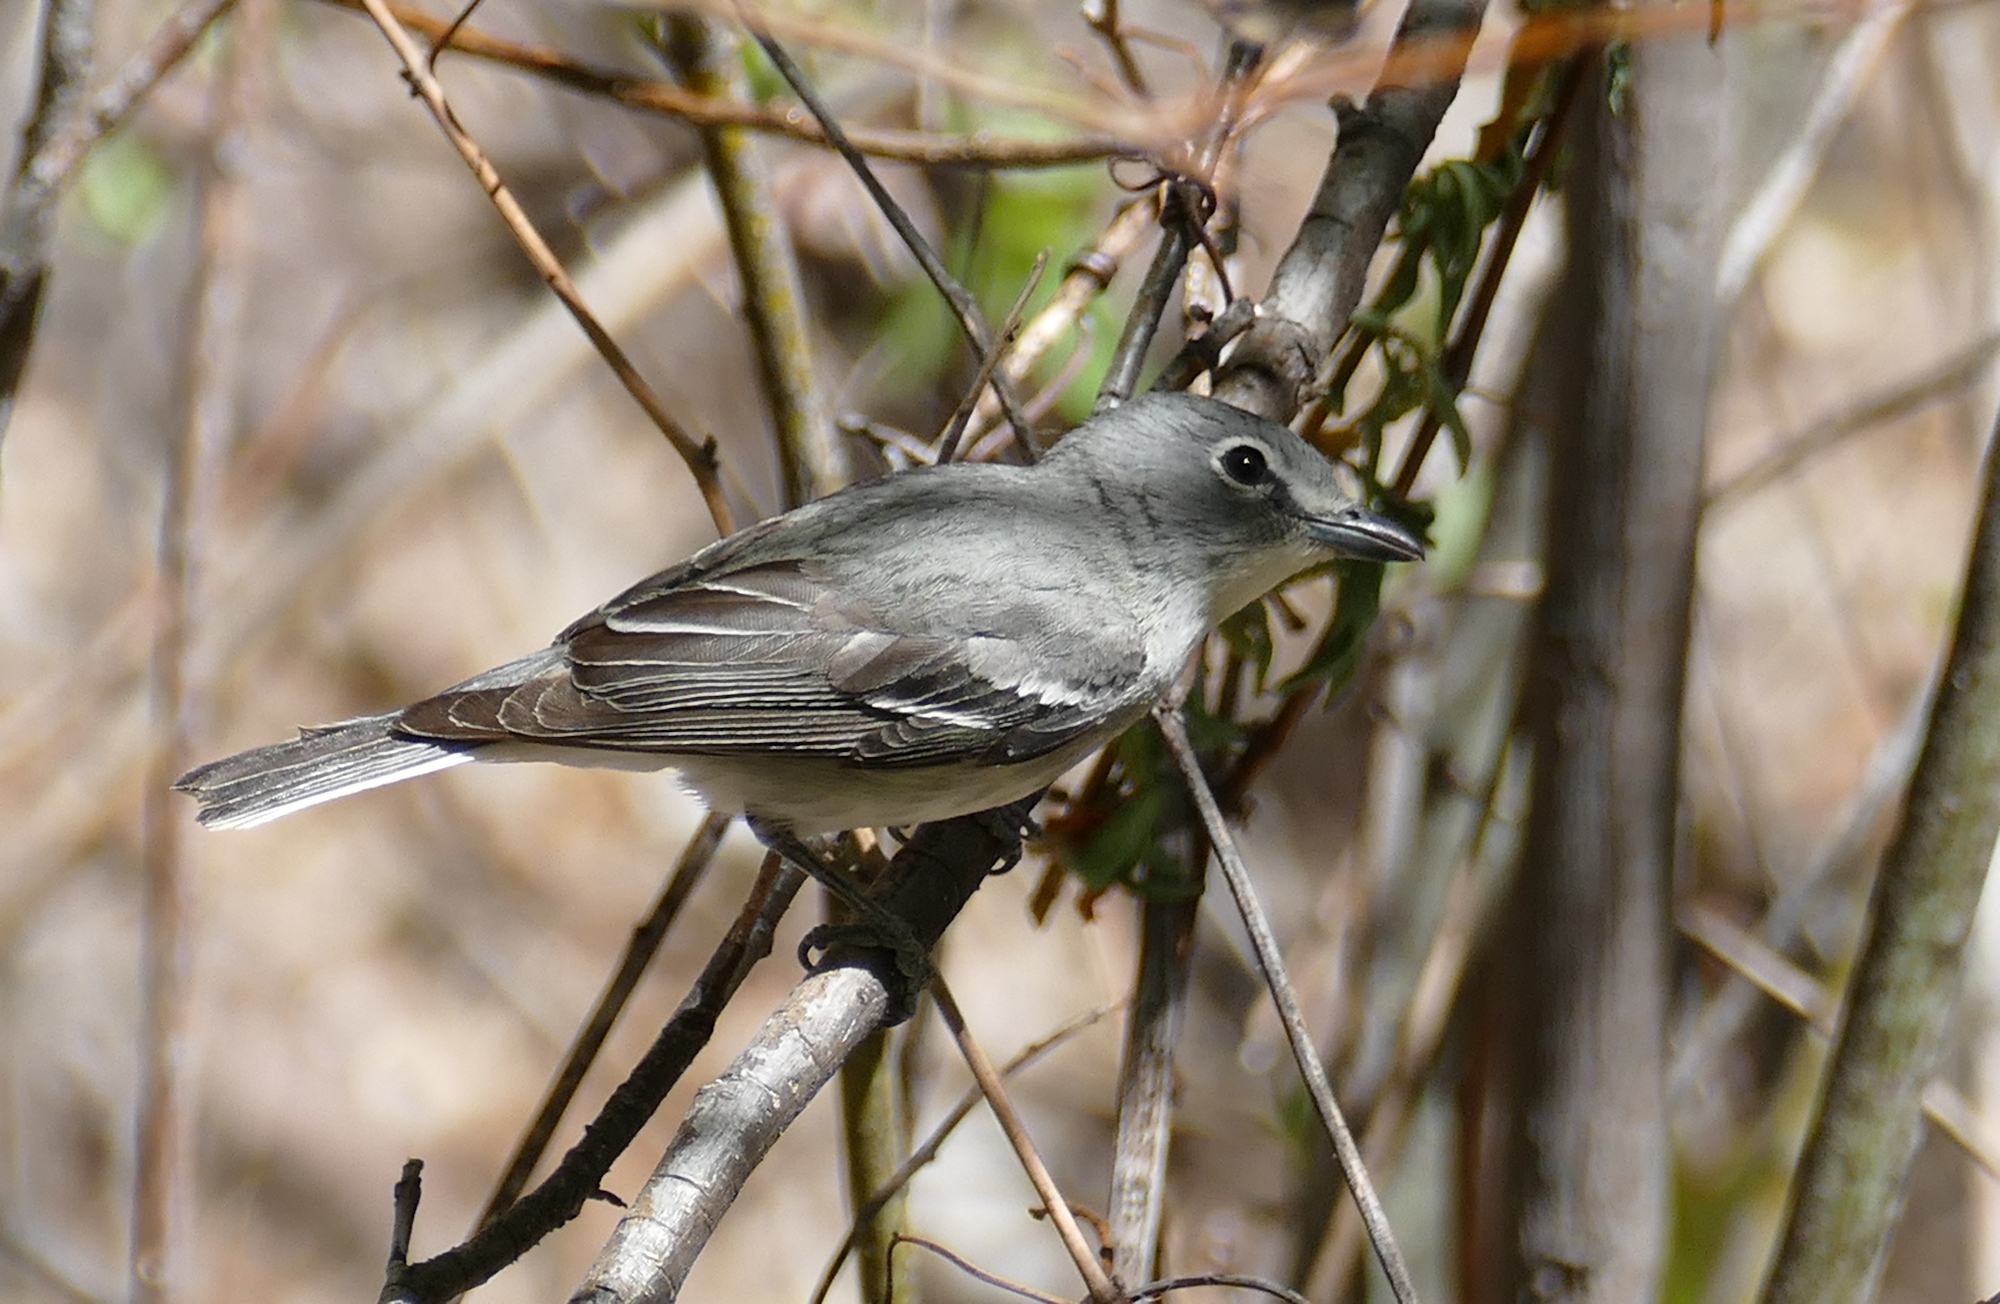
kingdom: Animalia
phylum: Chordata
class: Aves
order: Passeriformes
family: Vireonidae
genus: Vireo
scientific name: Vireo plumbeus
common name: Plumbeous vireo
